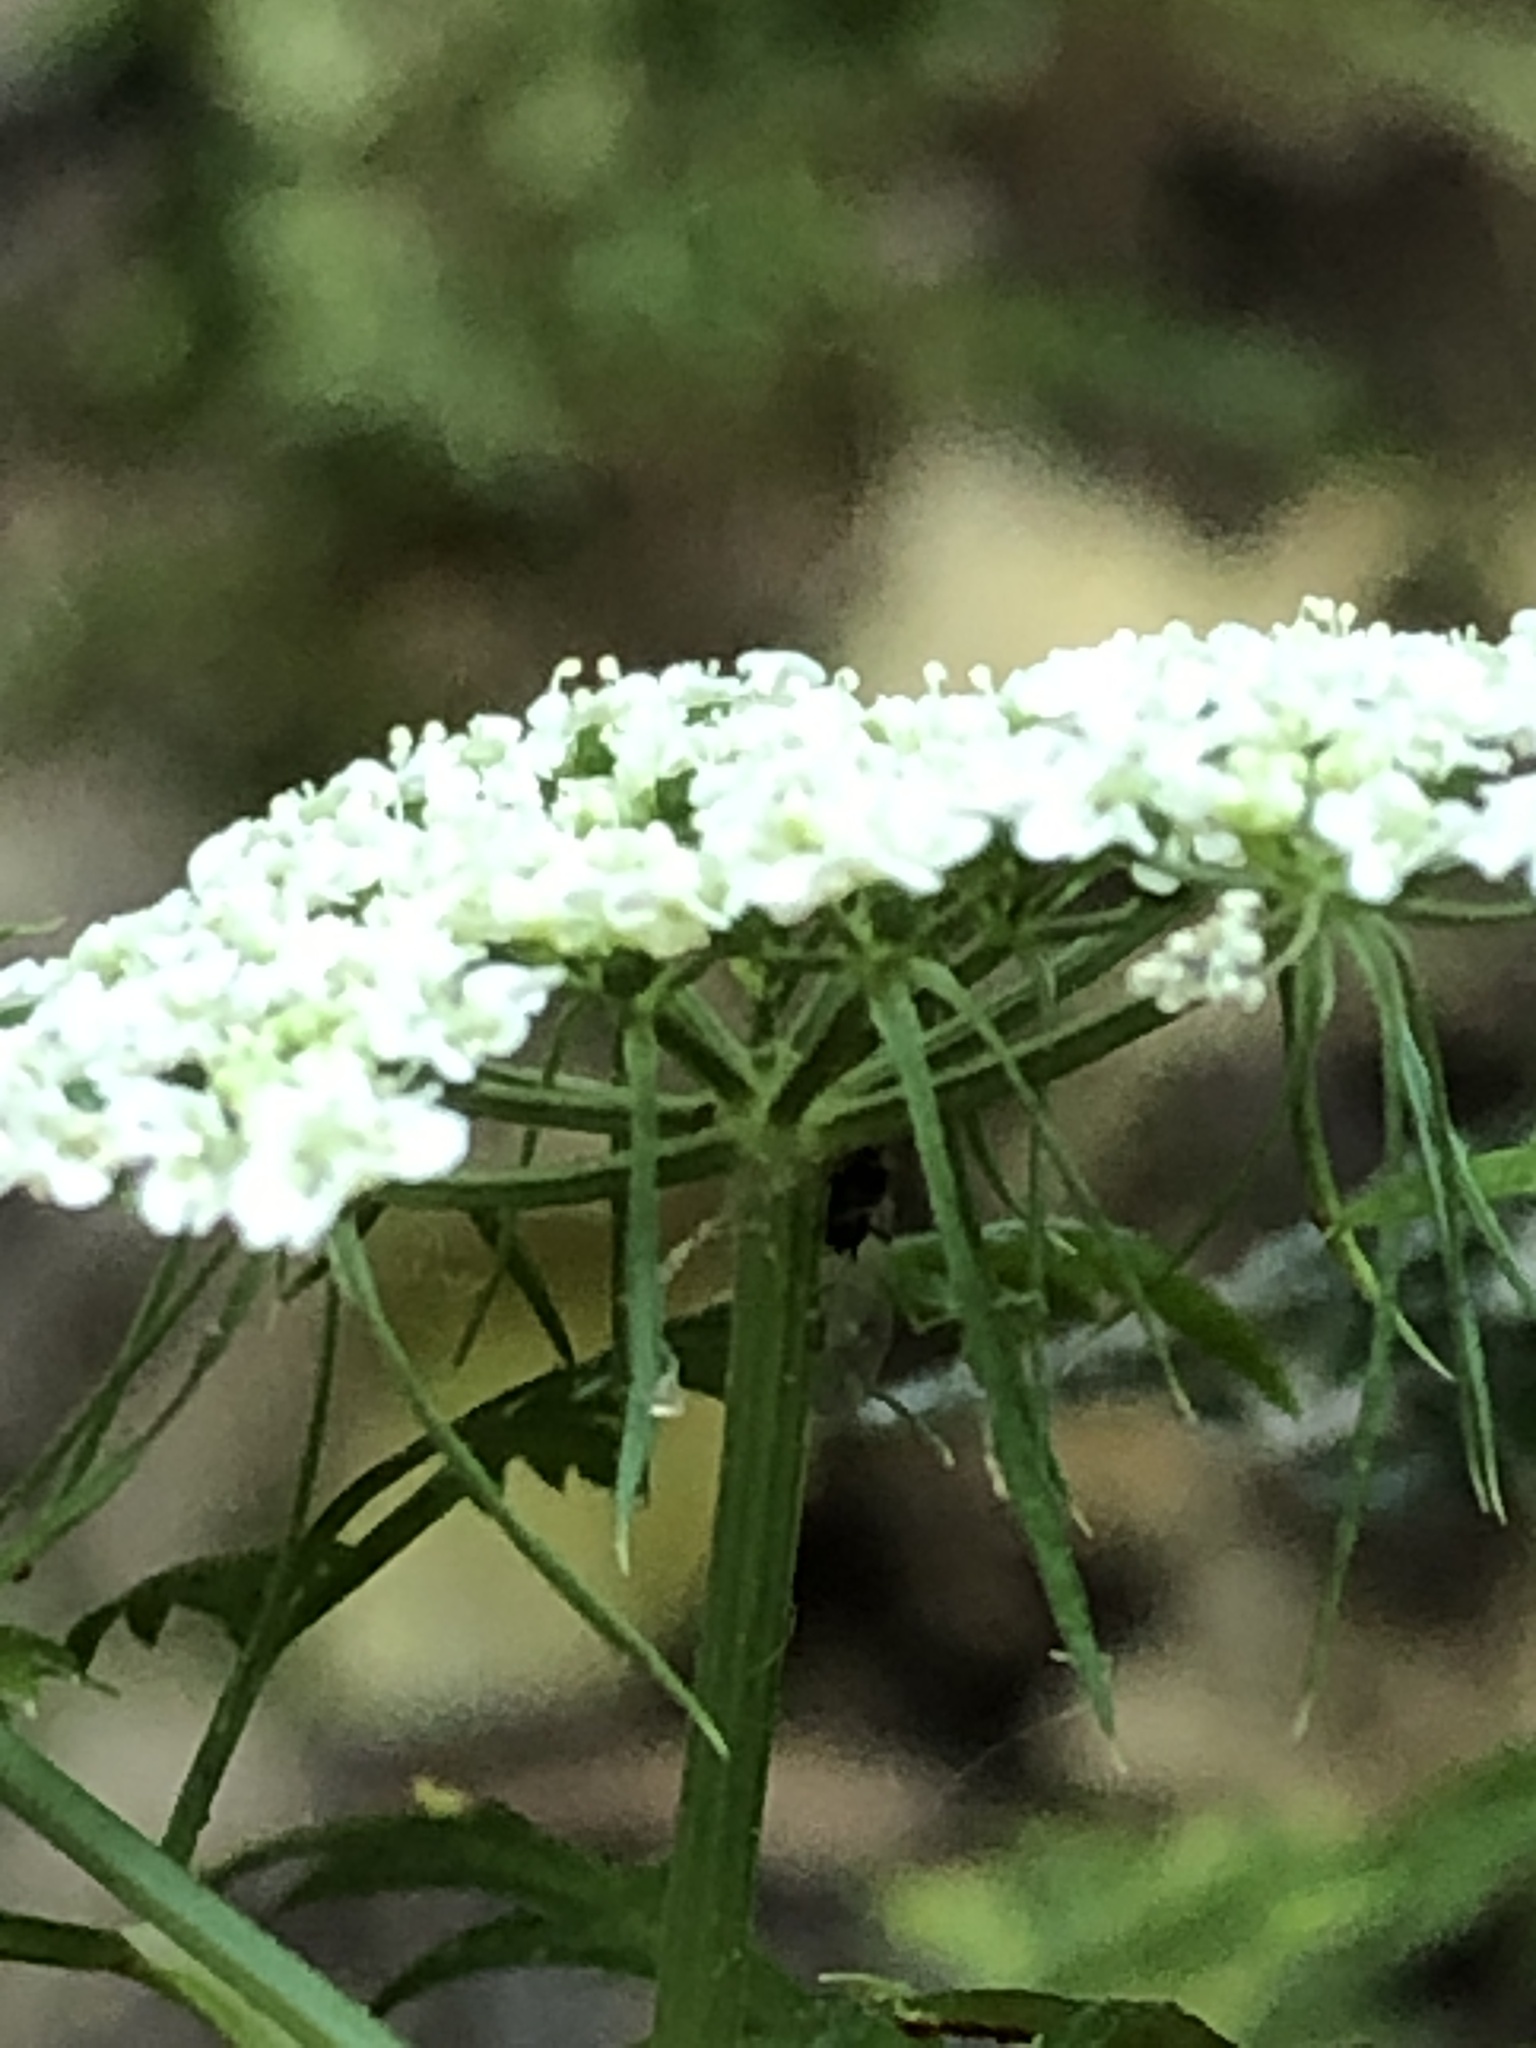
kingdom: Plantae
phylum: Tracheophyta
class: Magnoliopsida
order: Apiales
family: Apiaceae
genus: Aethusa
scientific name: Aethusa cynapium
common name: Fool's parsley
